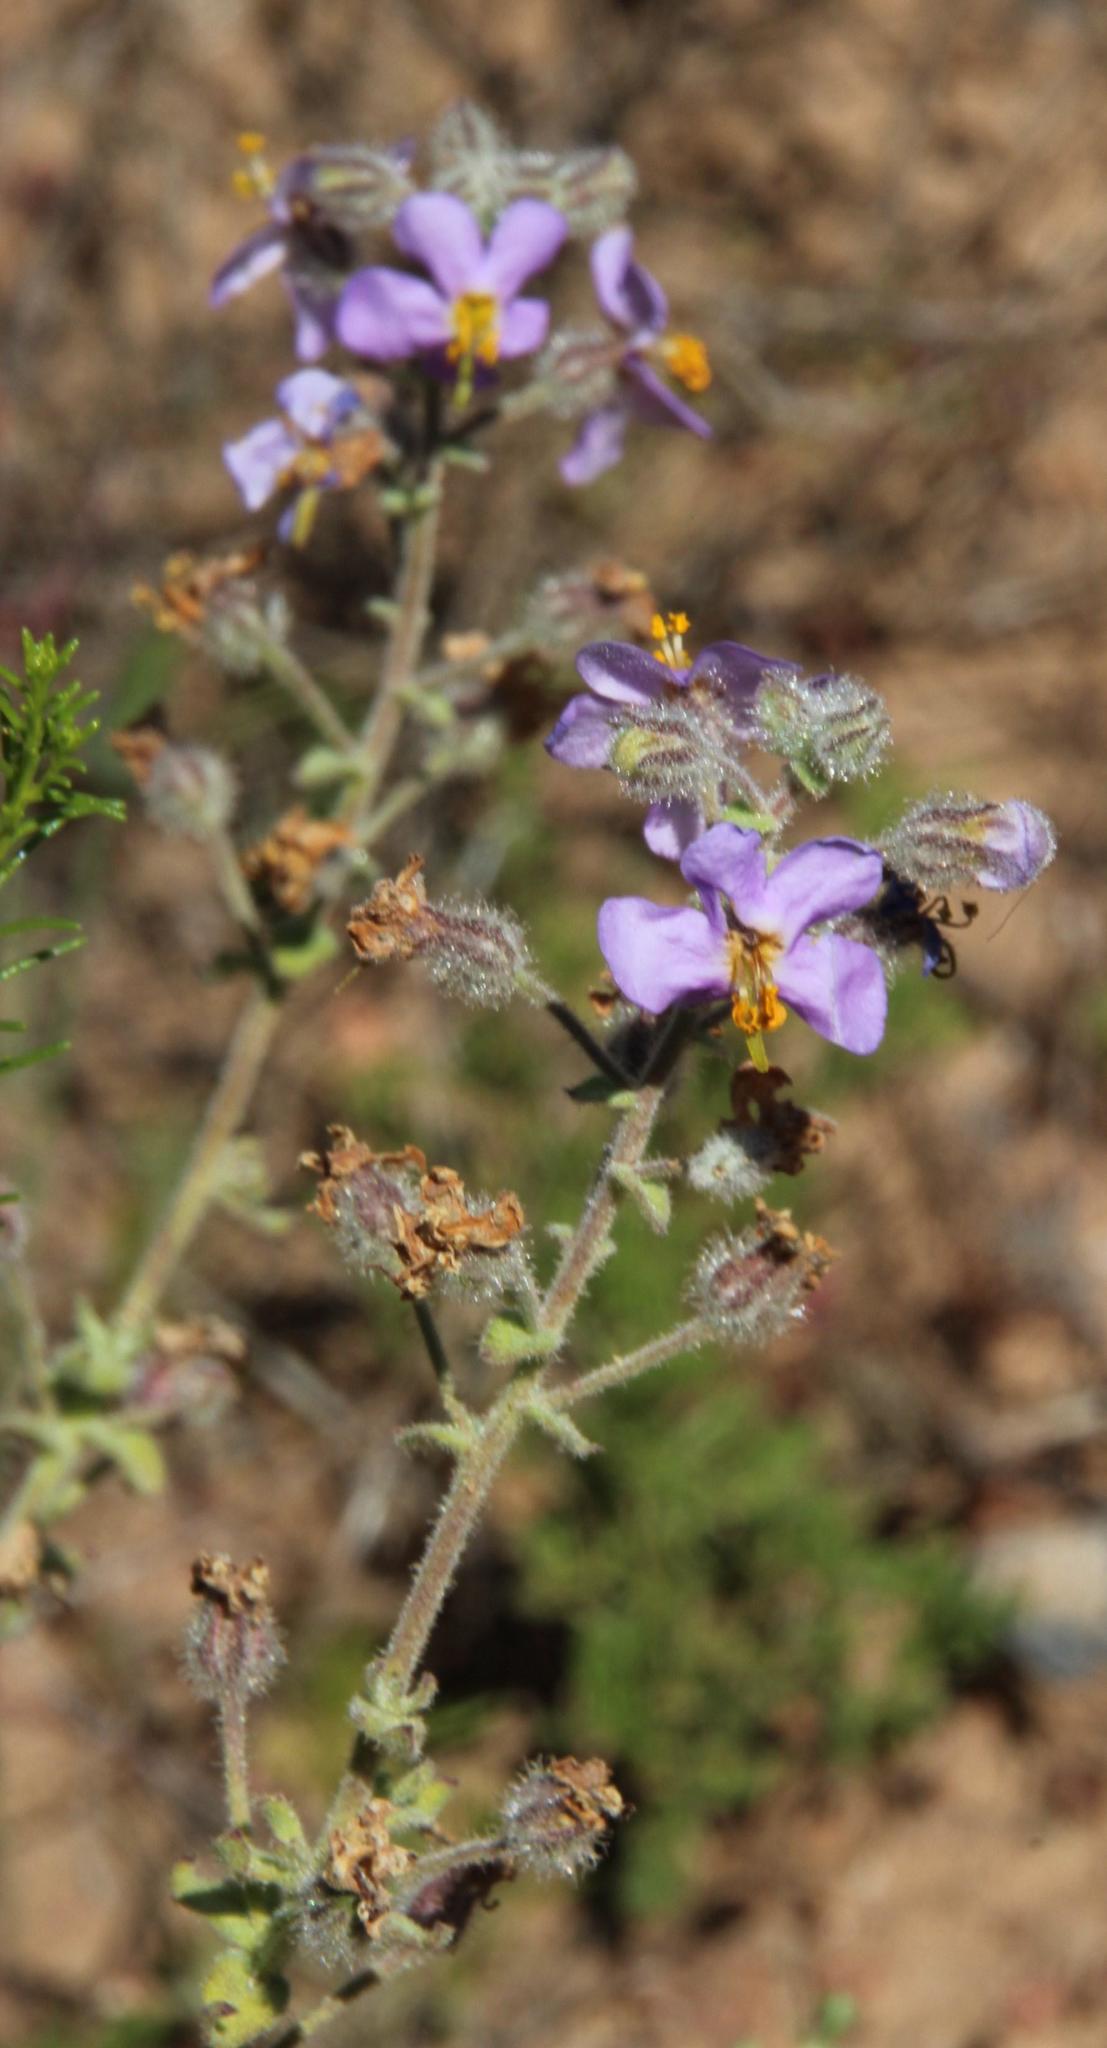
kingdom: Plantae
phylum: Tracheophyta
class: Magnoliopsida
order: Lamiales
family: Scrophulariaceae
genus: Chaenostoma
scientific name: Chaenostoma caeruleum
